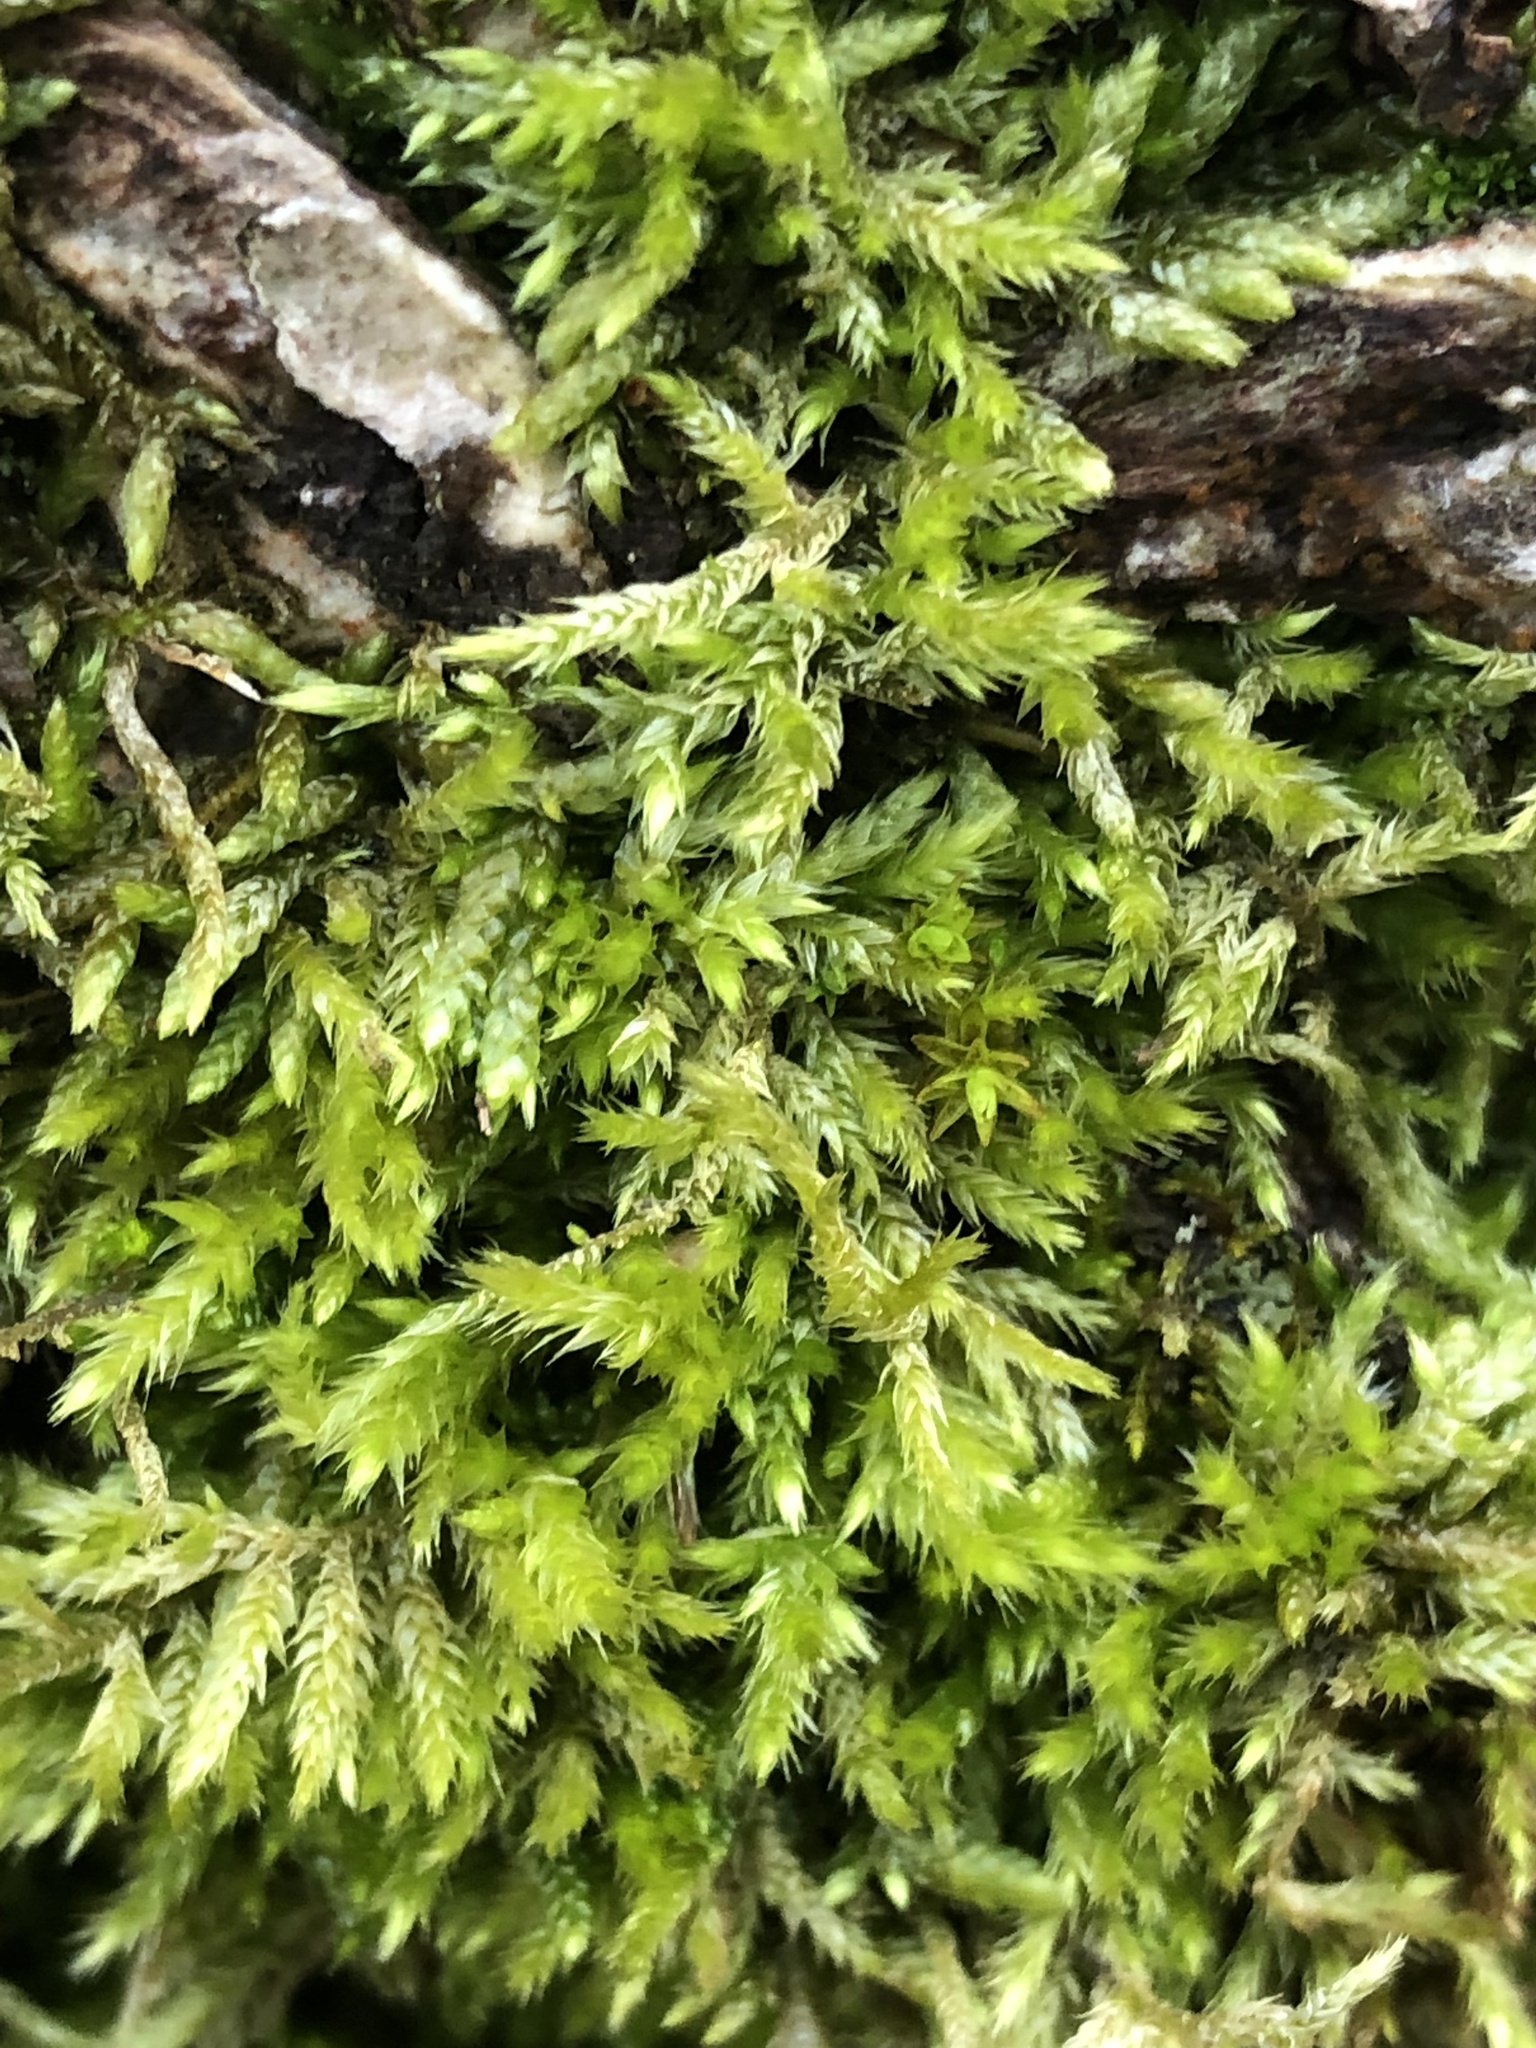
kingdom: Plantae
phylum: Bryophyta
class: Bryopsida
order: Hypnales
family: Callicladiaceae
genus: Callicladium
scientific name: Callicladium haldanianum
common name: Beautiful branch moss
